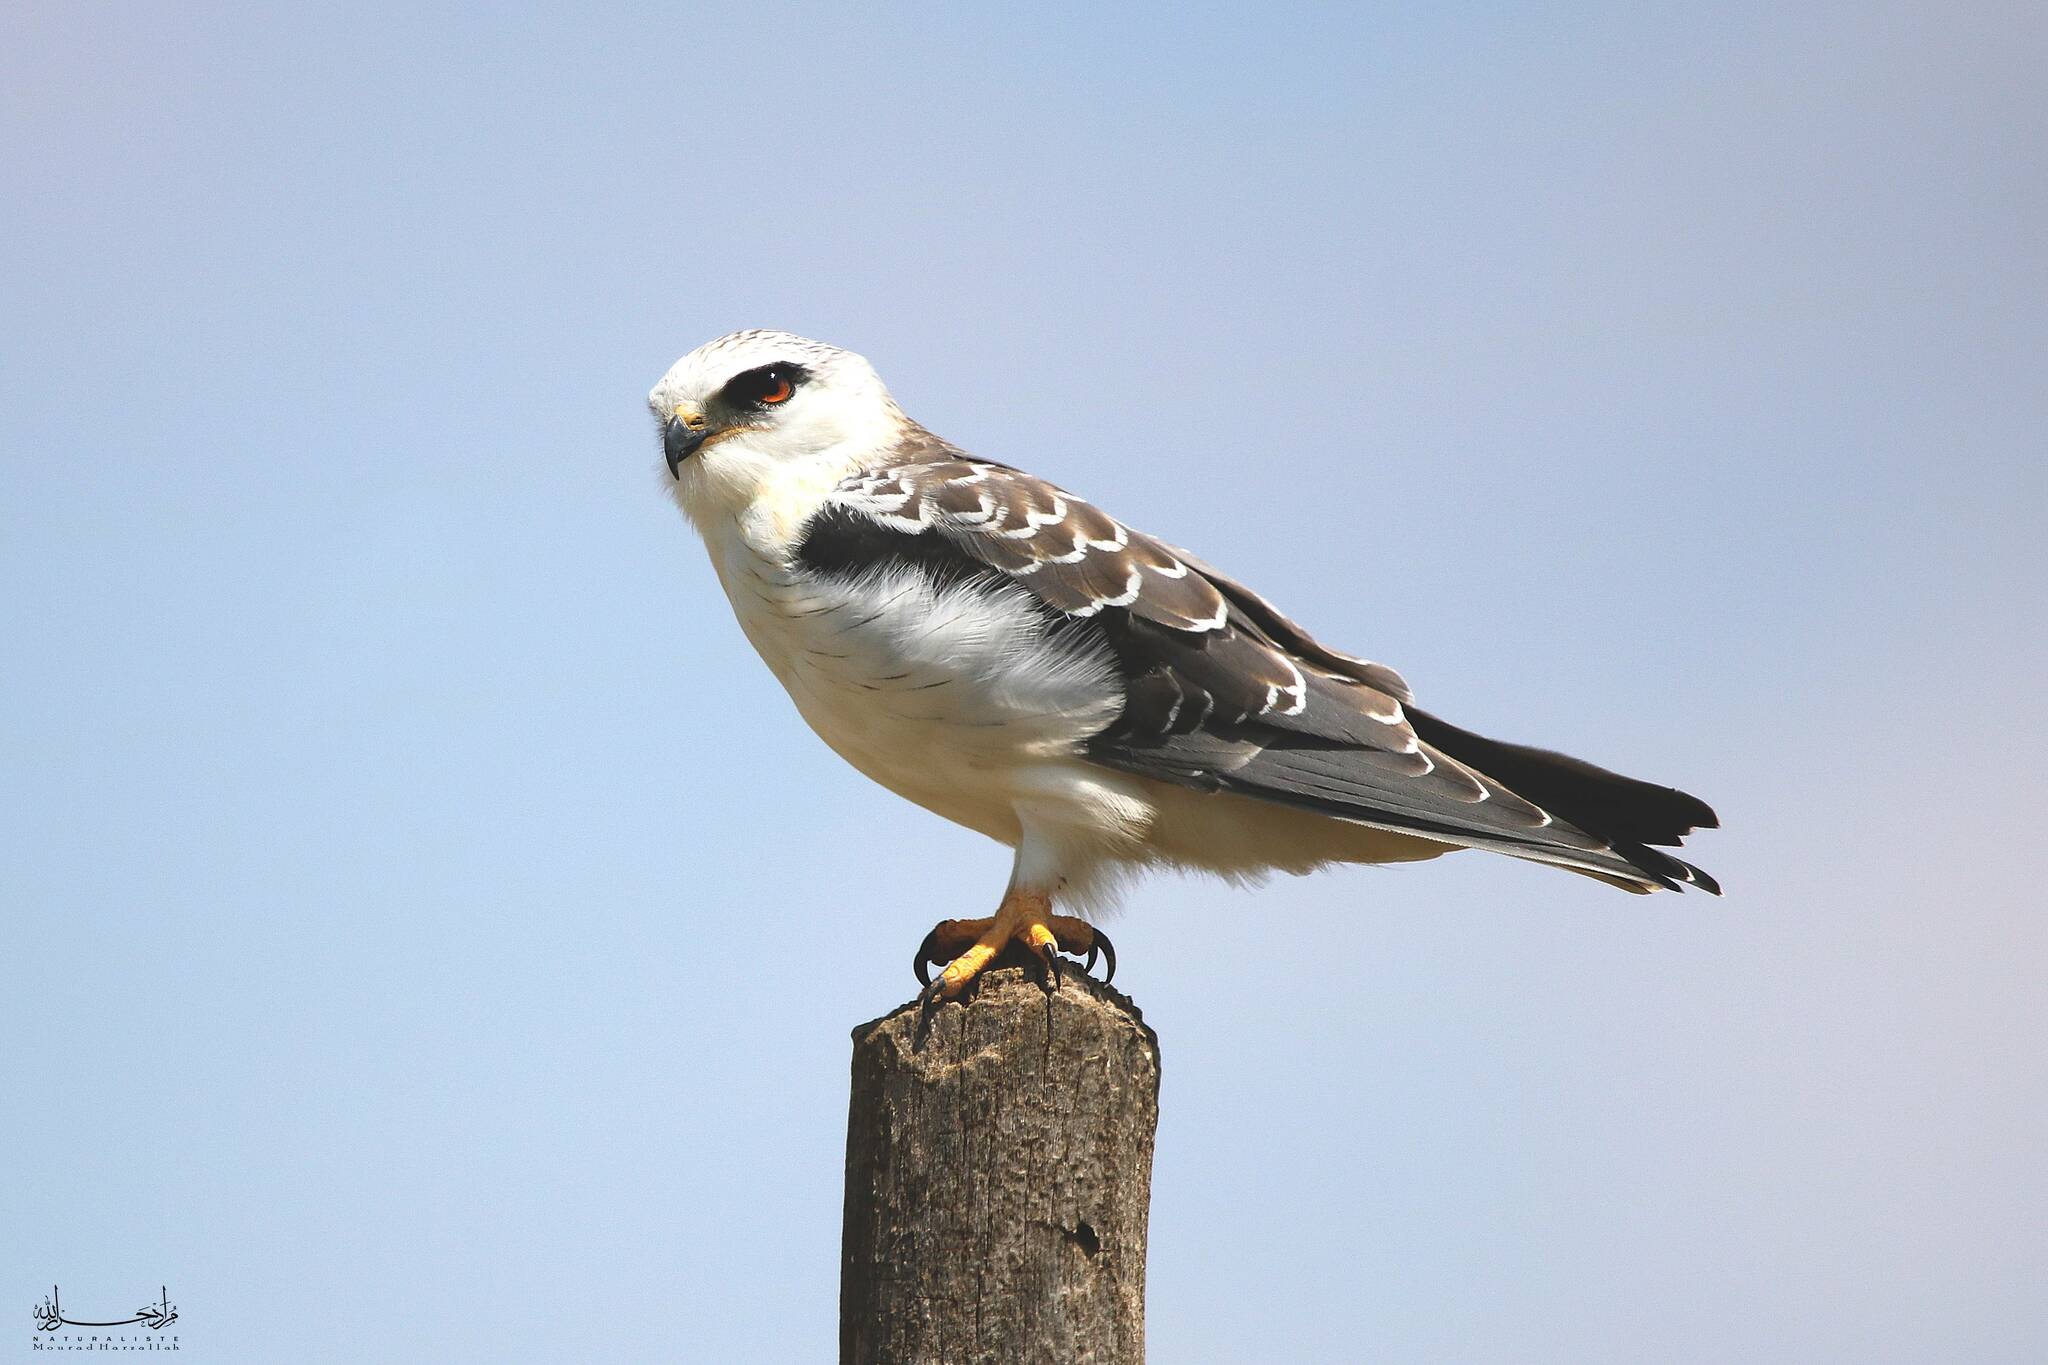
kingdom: Animalia
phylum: Chordata
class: Aves
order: Accipitriformes
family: Accipitridae
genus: Elanus
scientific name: Elanus caeruleus
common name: Black-winged kite
